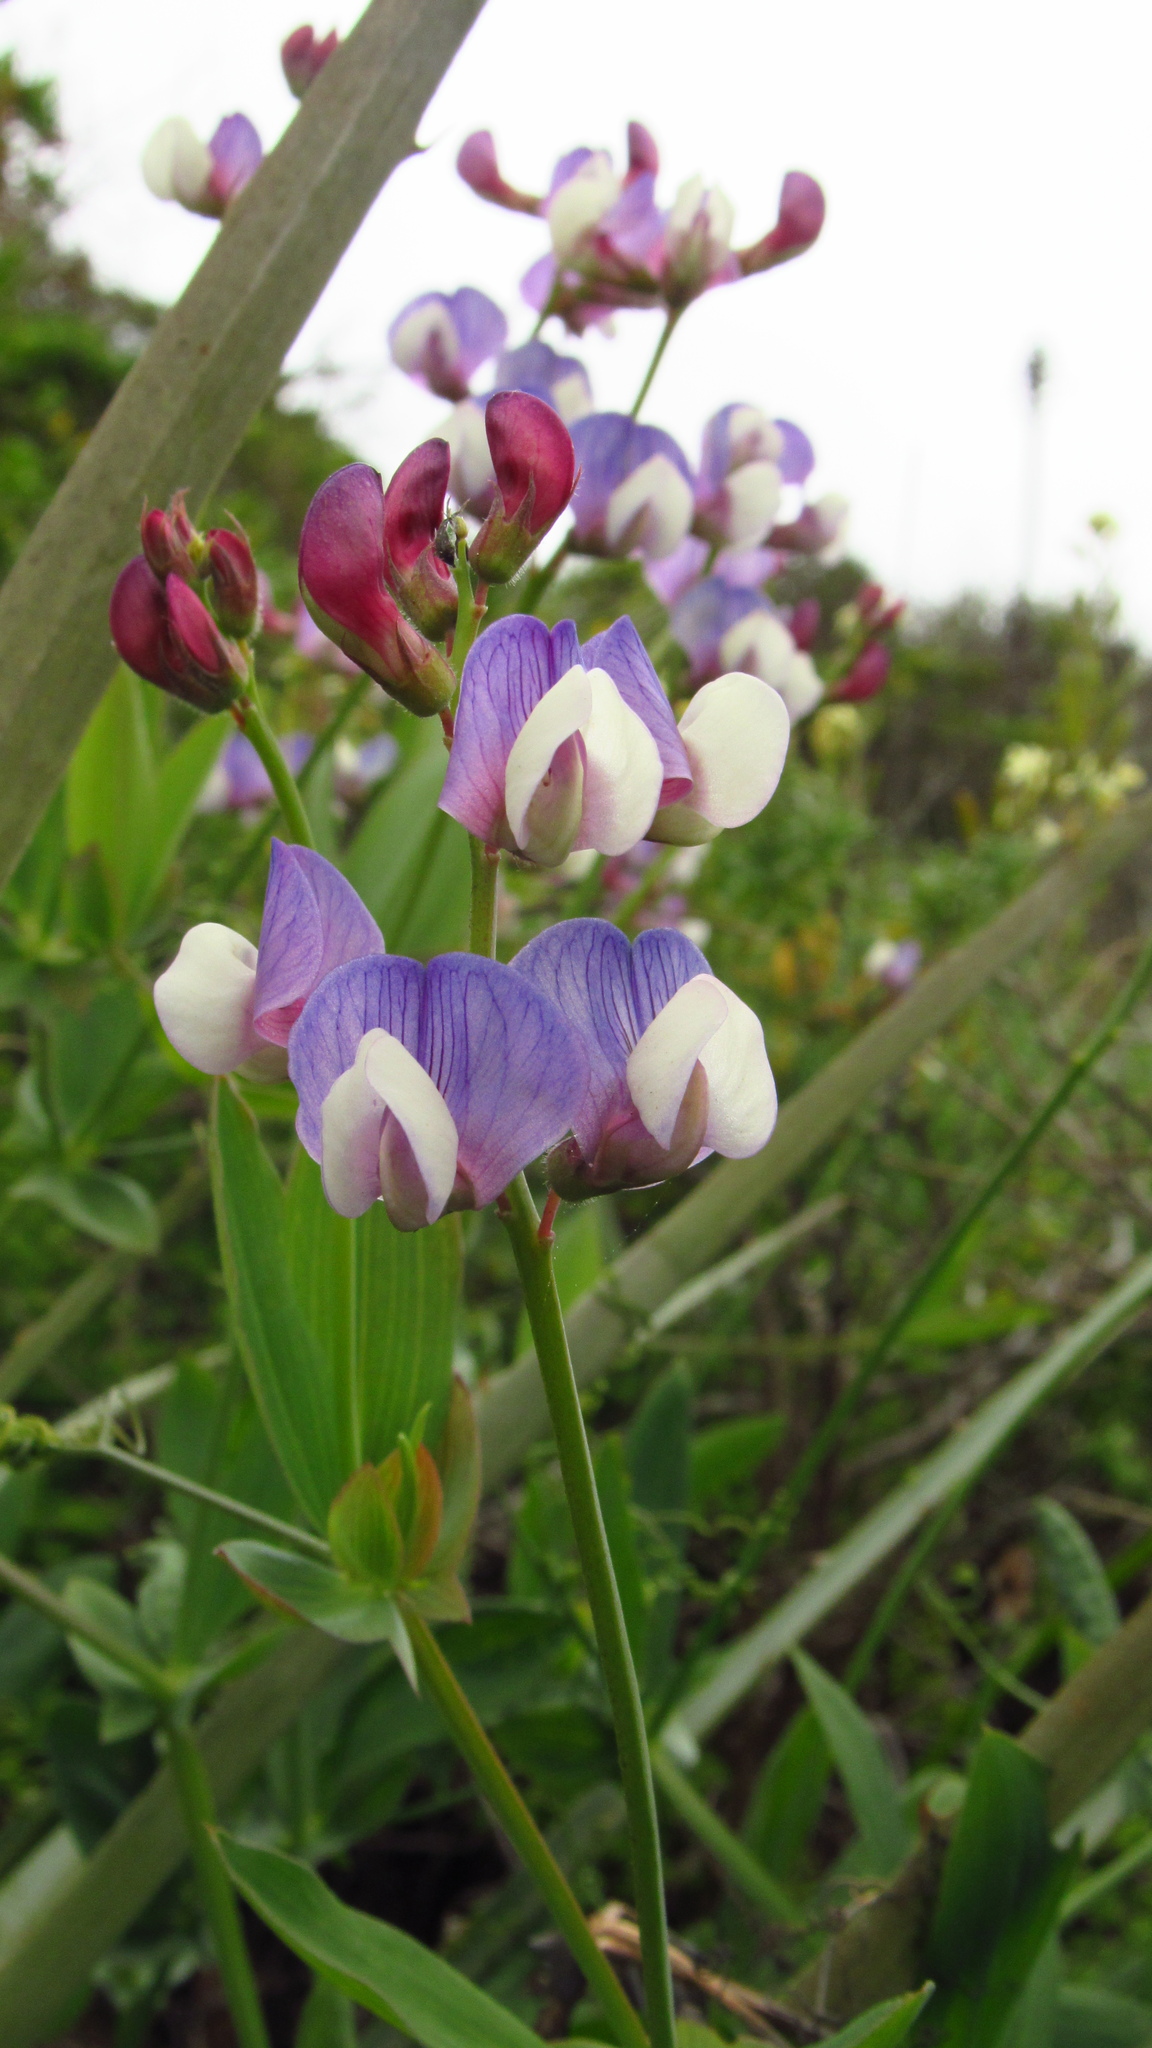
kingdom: Plantae
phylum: Tracheophyta
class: Magnoliopsida
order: Fabales
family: Fabaceae
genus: Lathyrus
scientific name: Lathyrus magellanicus
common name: Lord anson's pea
